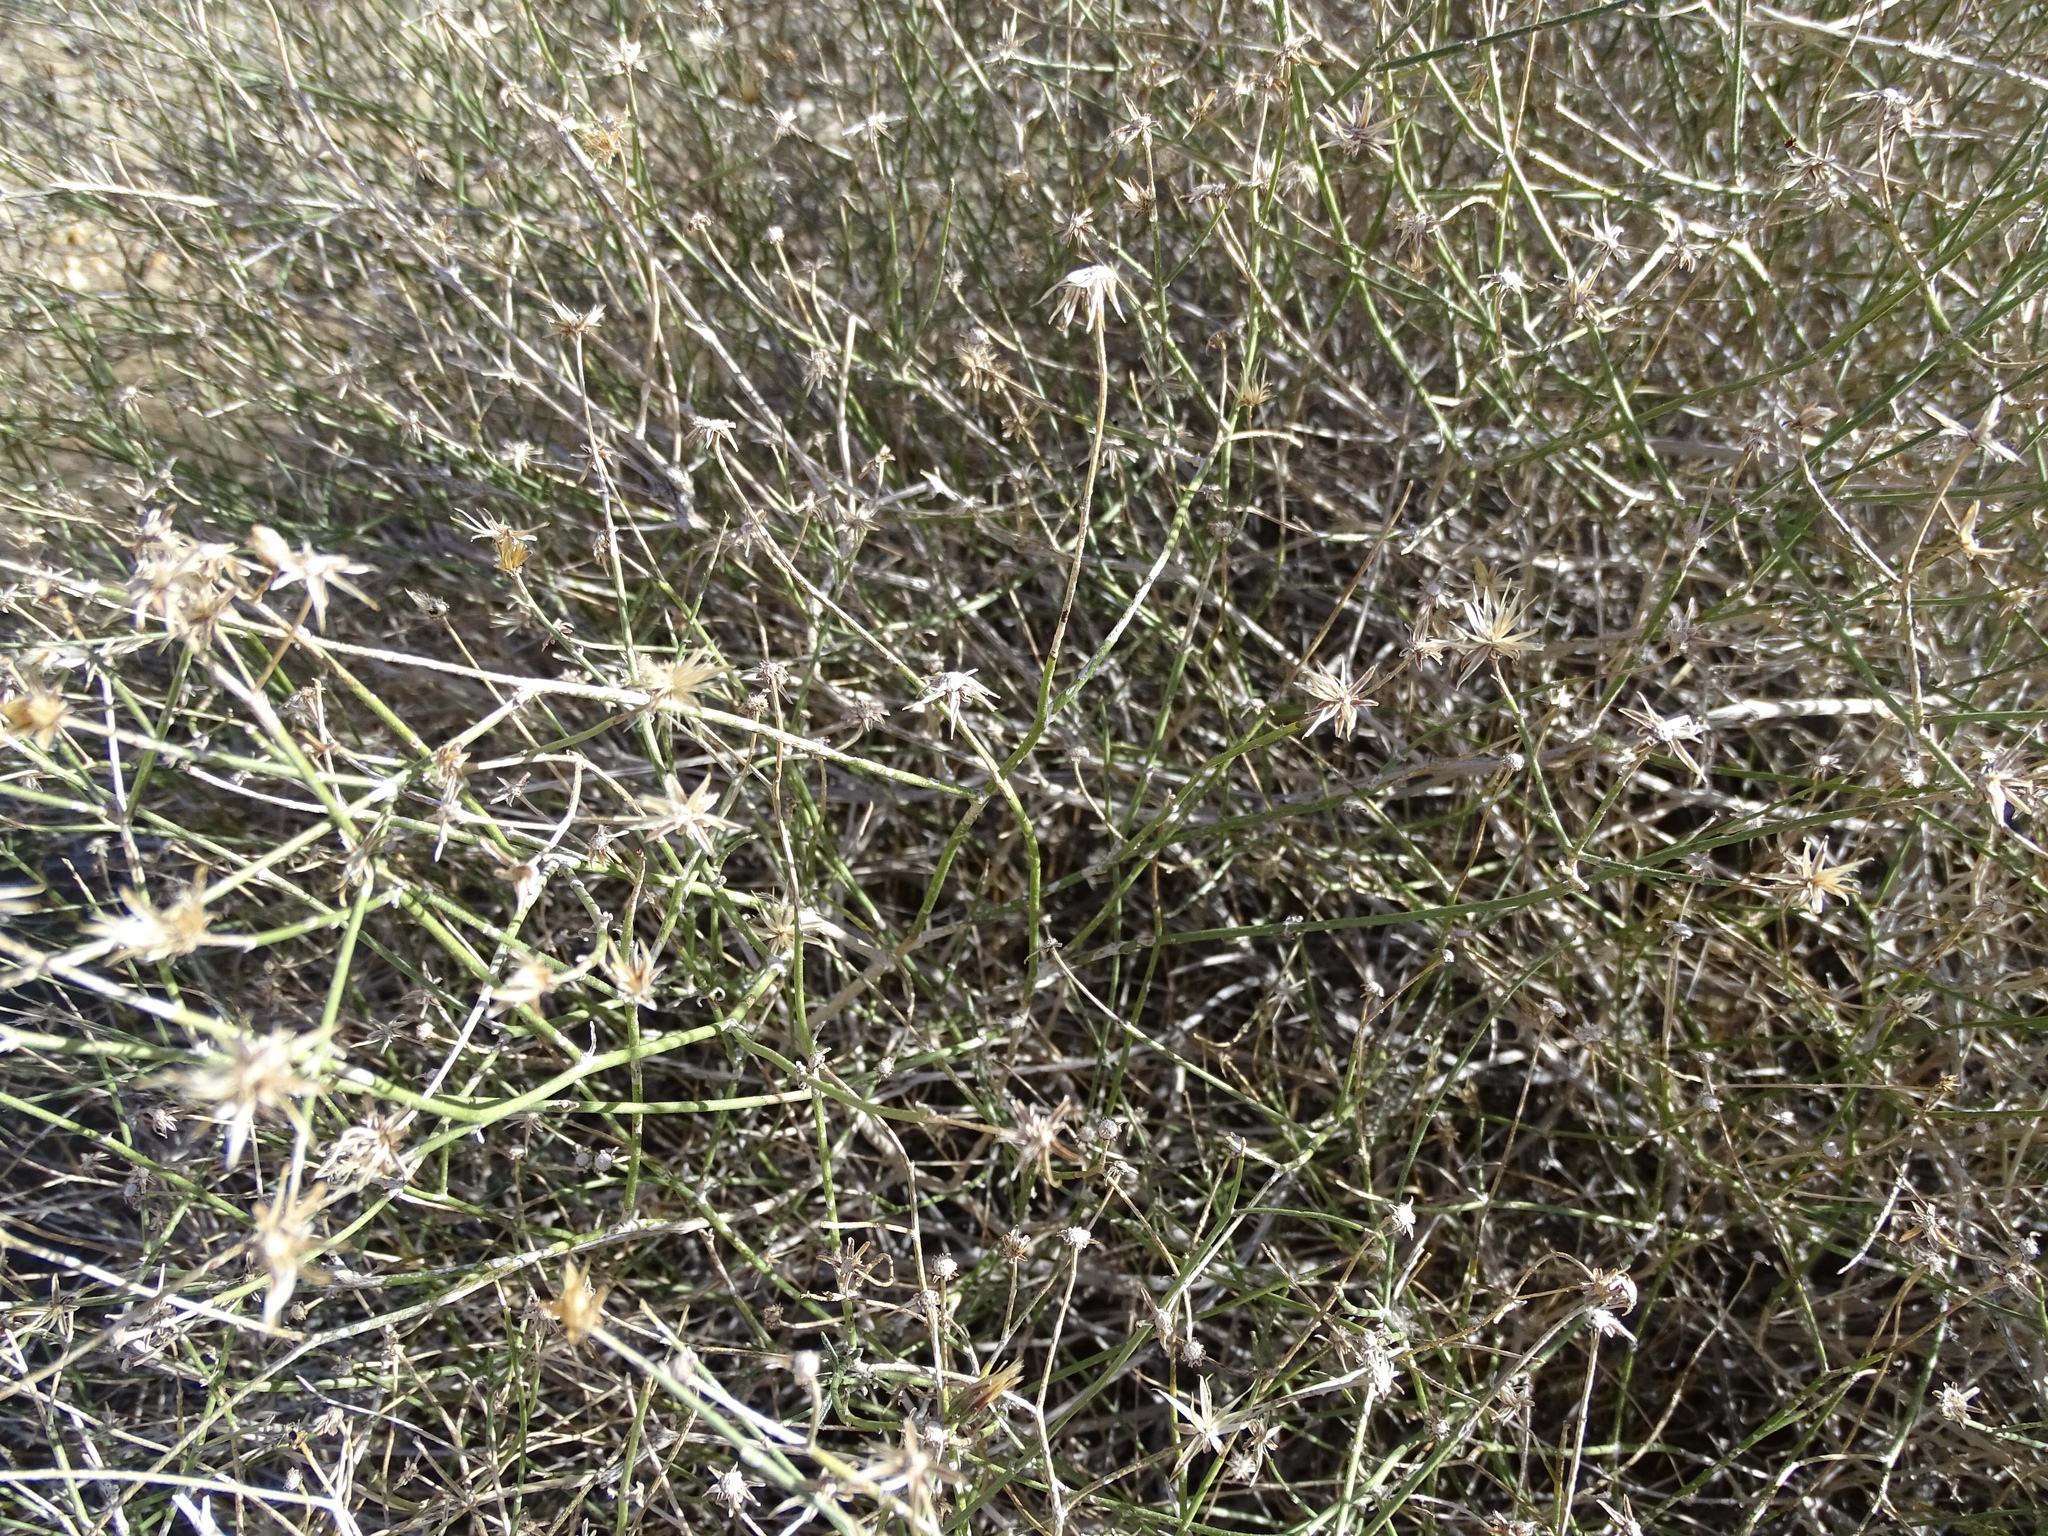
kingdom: Plantae
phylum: Tracheophyta
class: Magnoliopsida
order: Asterales
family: Asteraceae
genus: Bebbia
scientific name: Bebbia juncea
